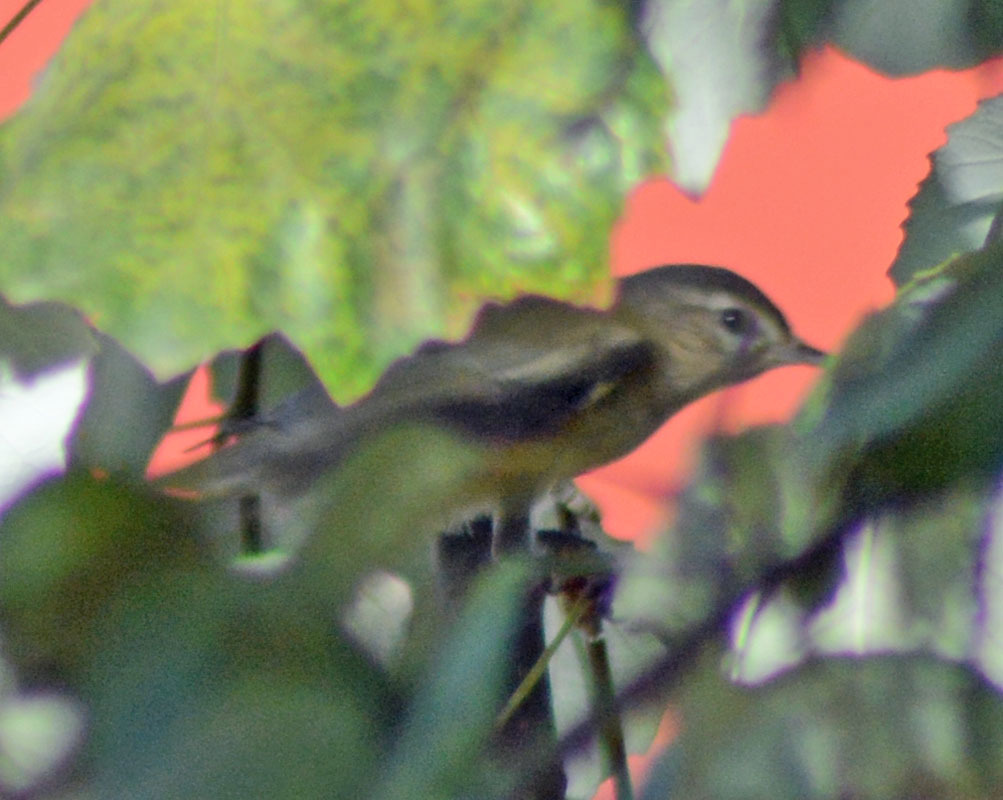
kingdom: Animalia
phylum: Chordata
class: Aves
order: Passeriformes
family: Vireonidae
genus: Vireo
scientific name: Vireo gilvus
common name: Warbling vireo
